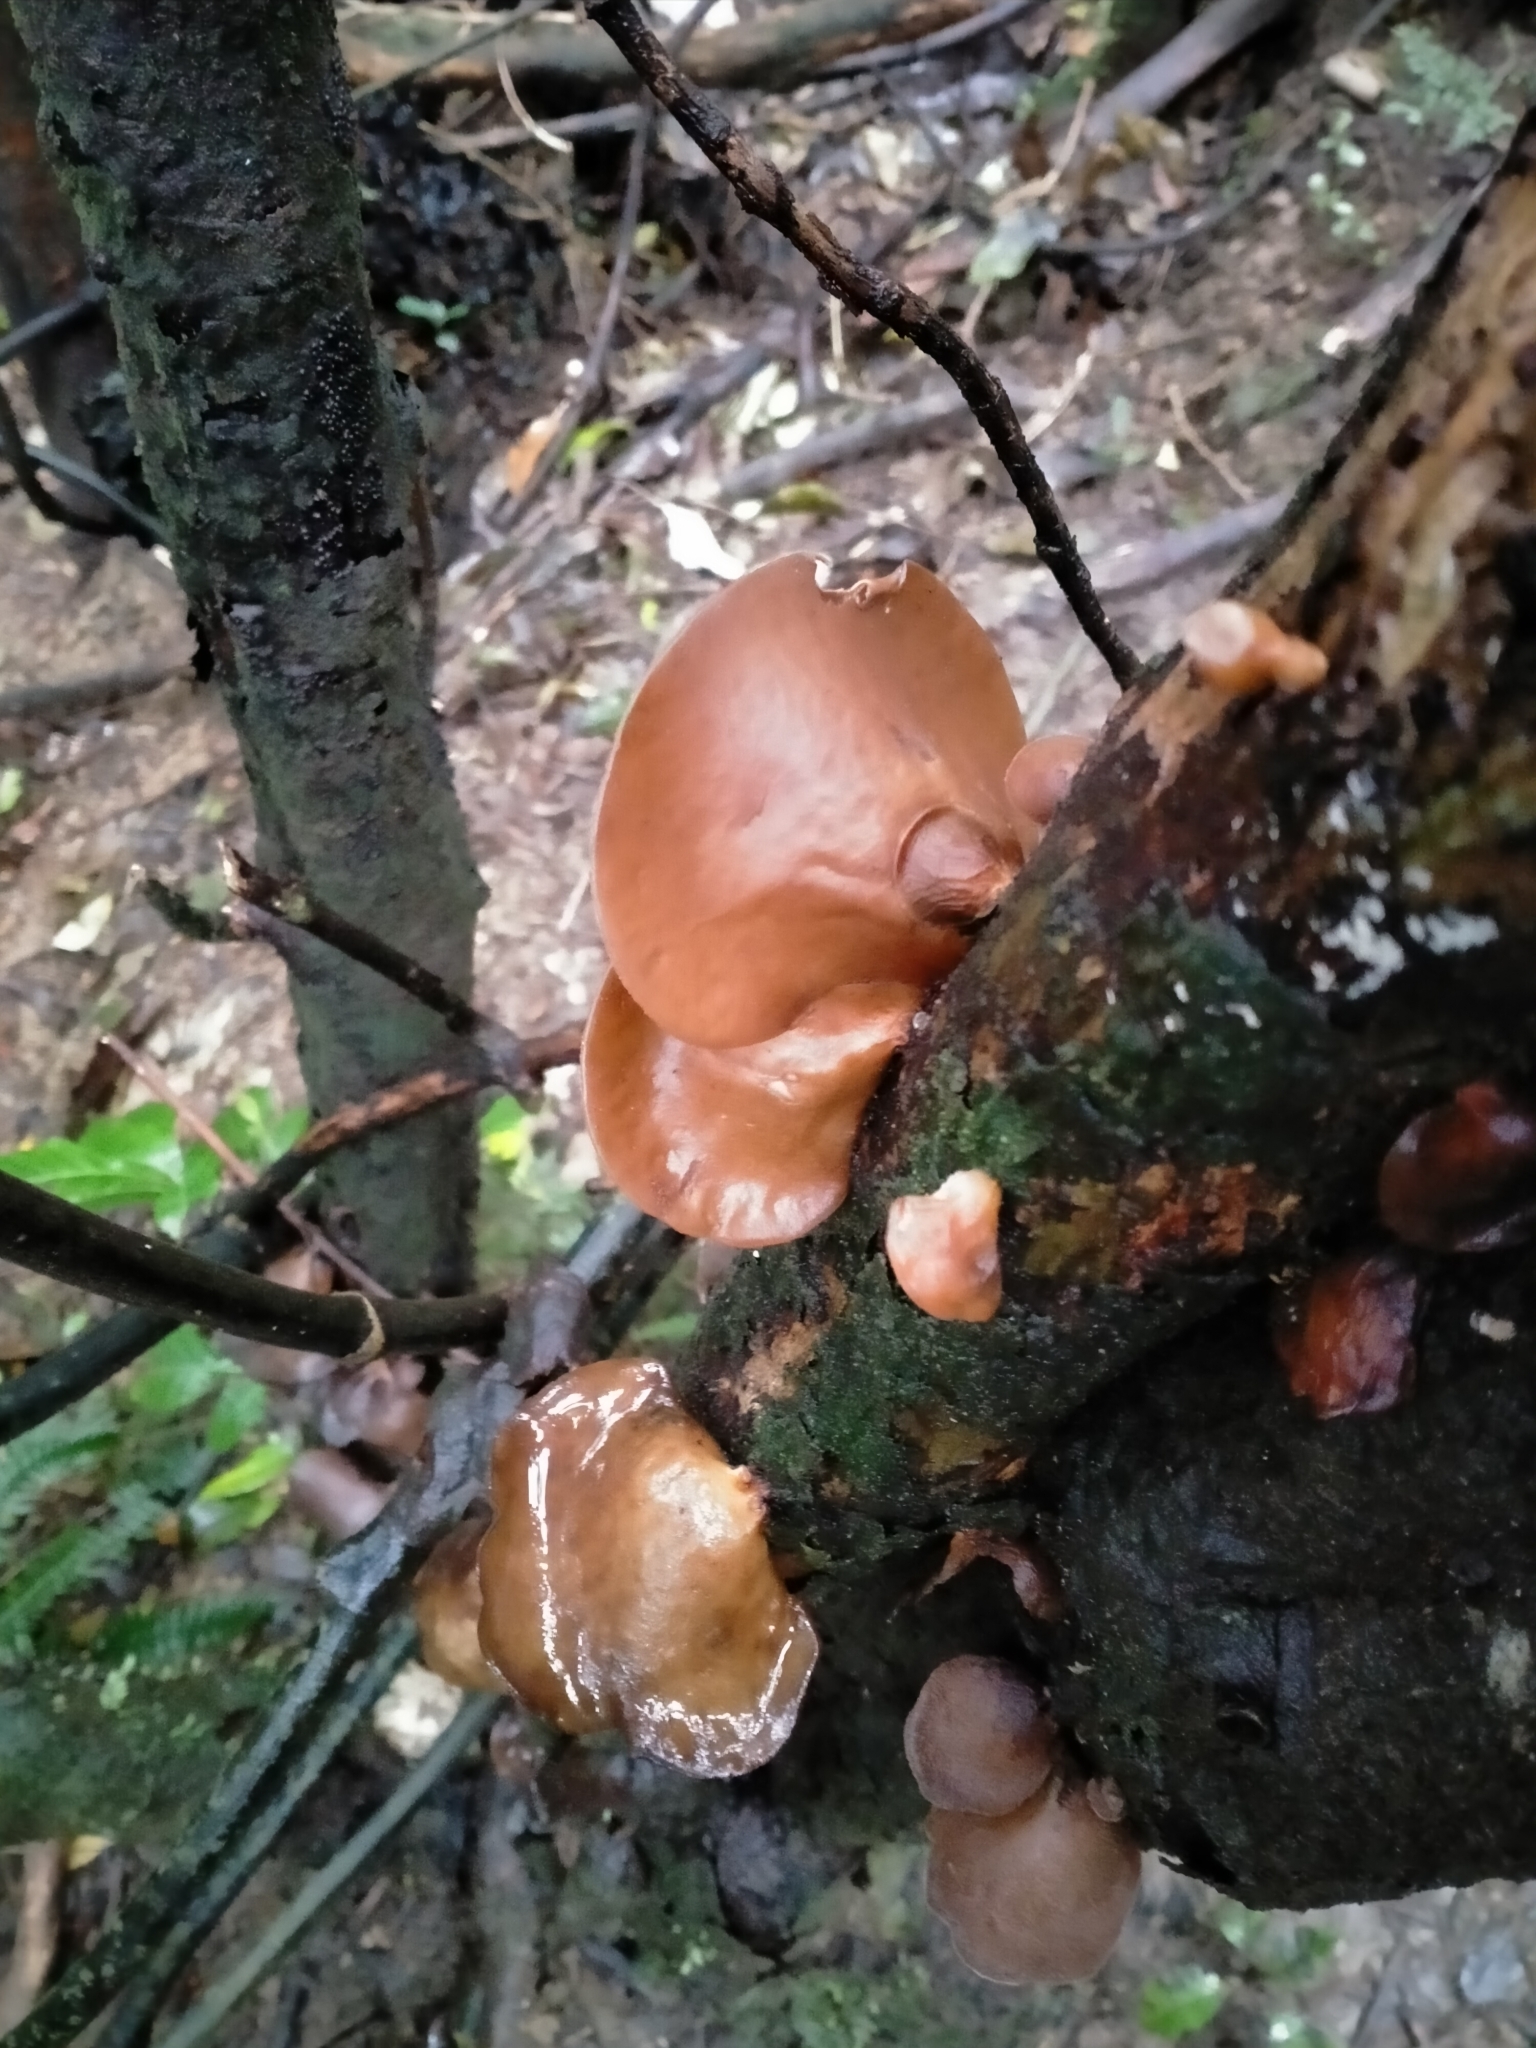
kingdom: Fungi
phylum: Basidiomycota
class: Agaricomycetes
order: Auriculariales
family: Auriculariaceae
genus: Auricularia
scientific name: Auricularia cornea
